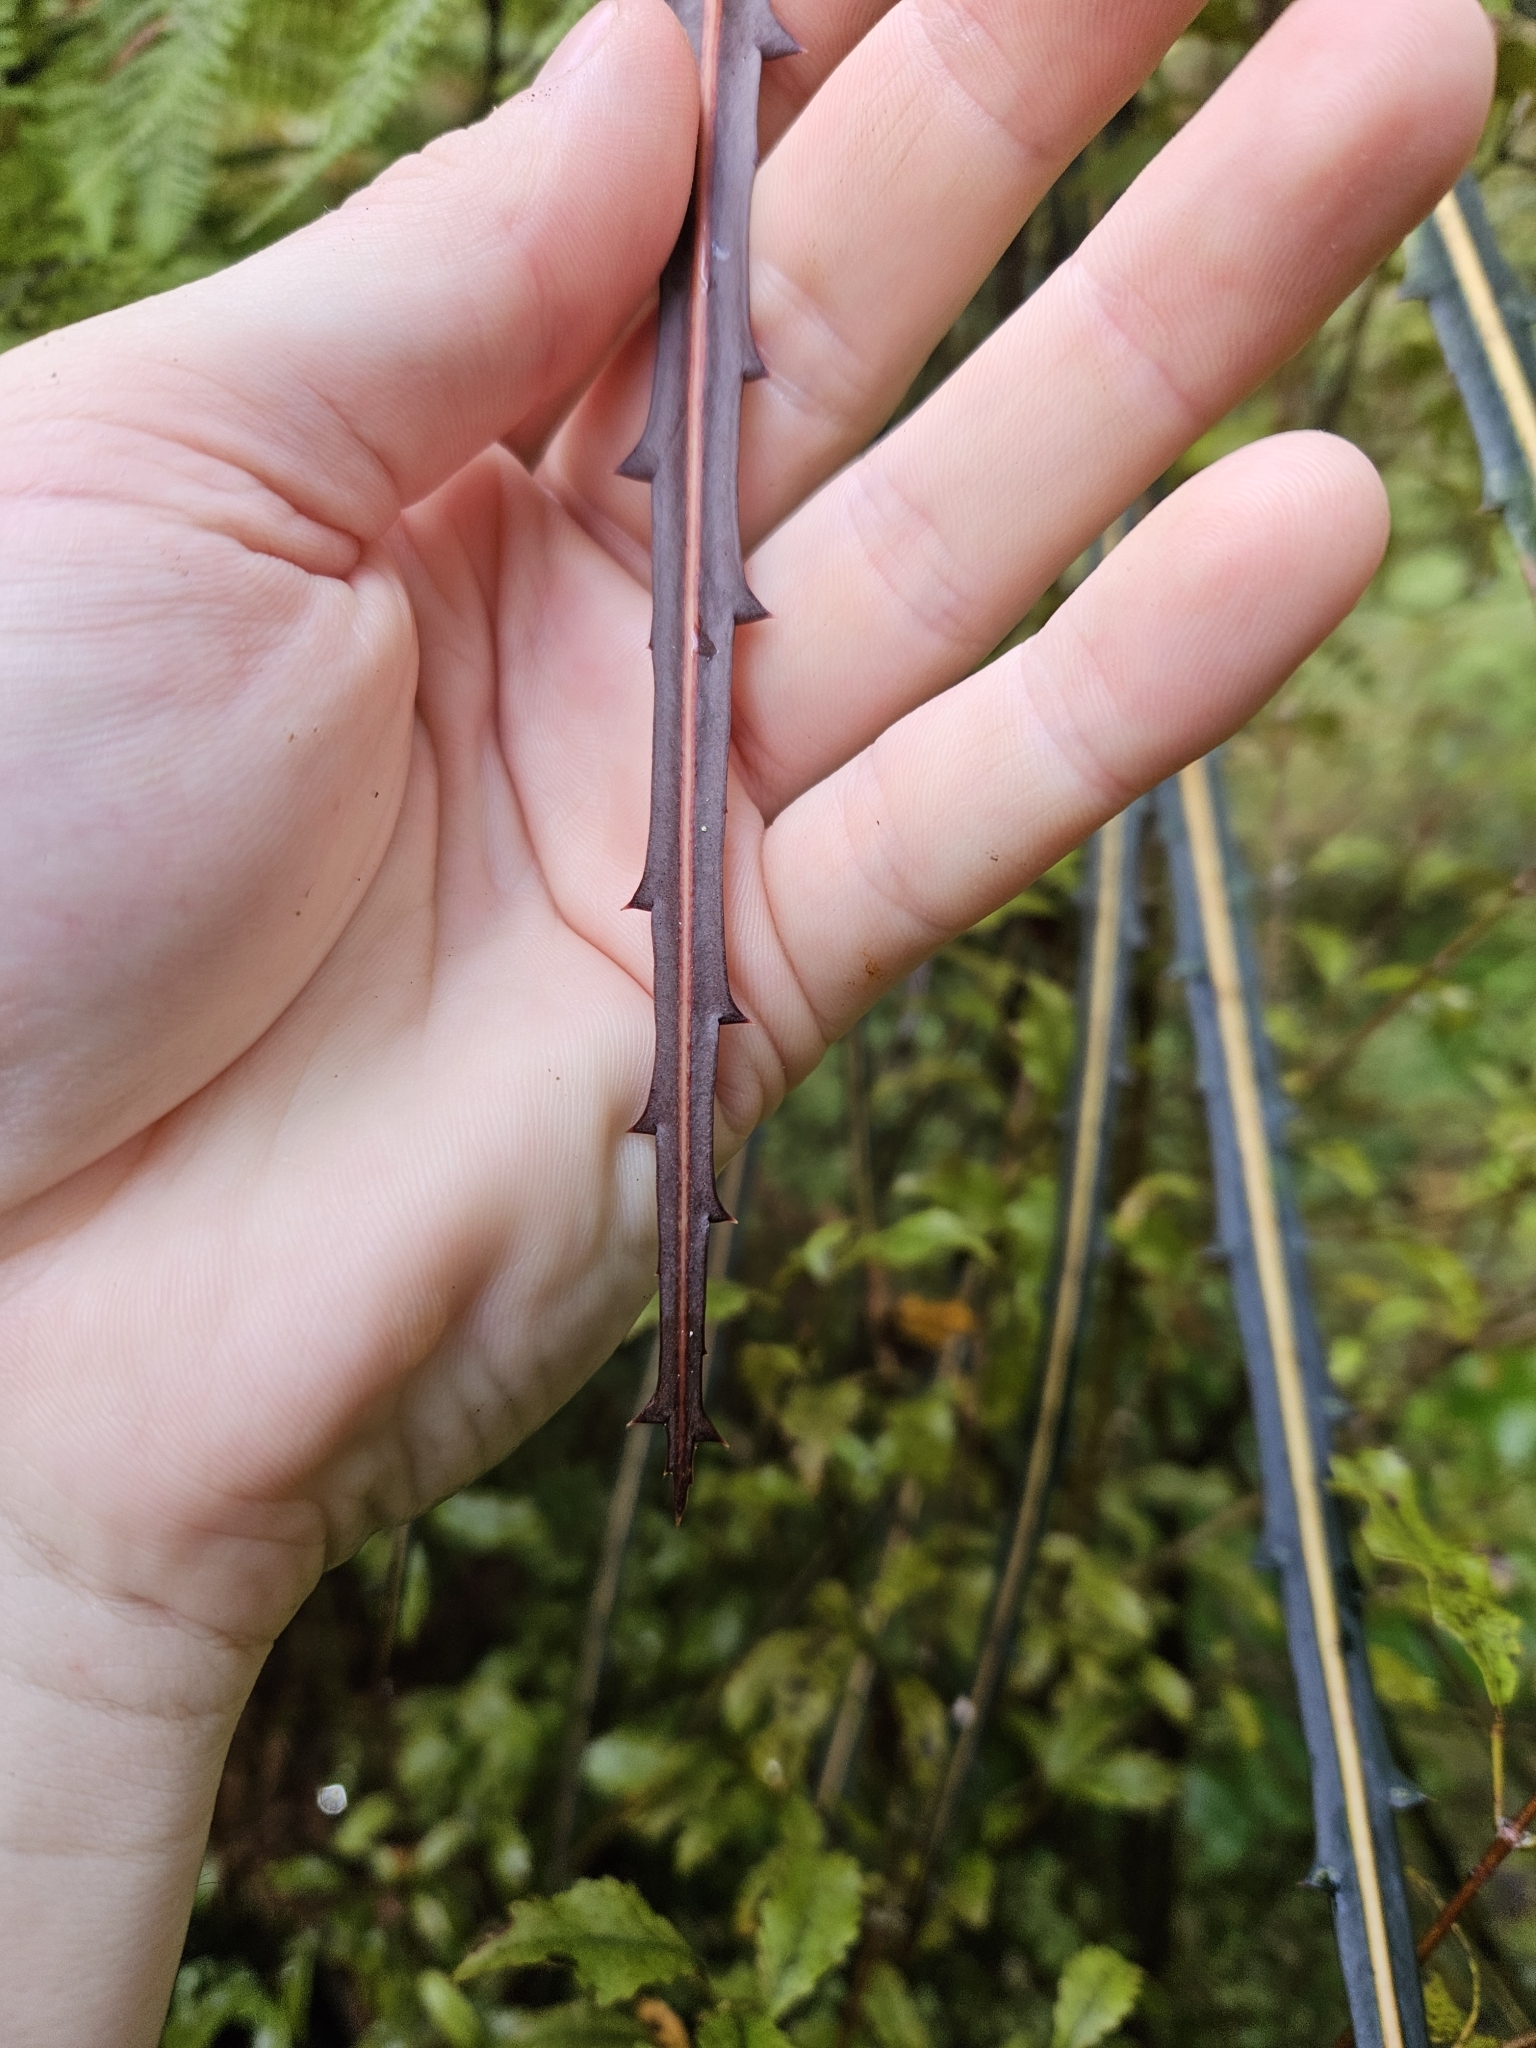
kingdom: Plantae
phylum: Tracheophyta
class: Magnoliopsida
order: Apiales
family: Araliaceae
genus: Pseudopanax
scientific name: Pseudopanax crassifolius
